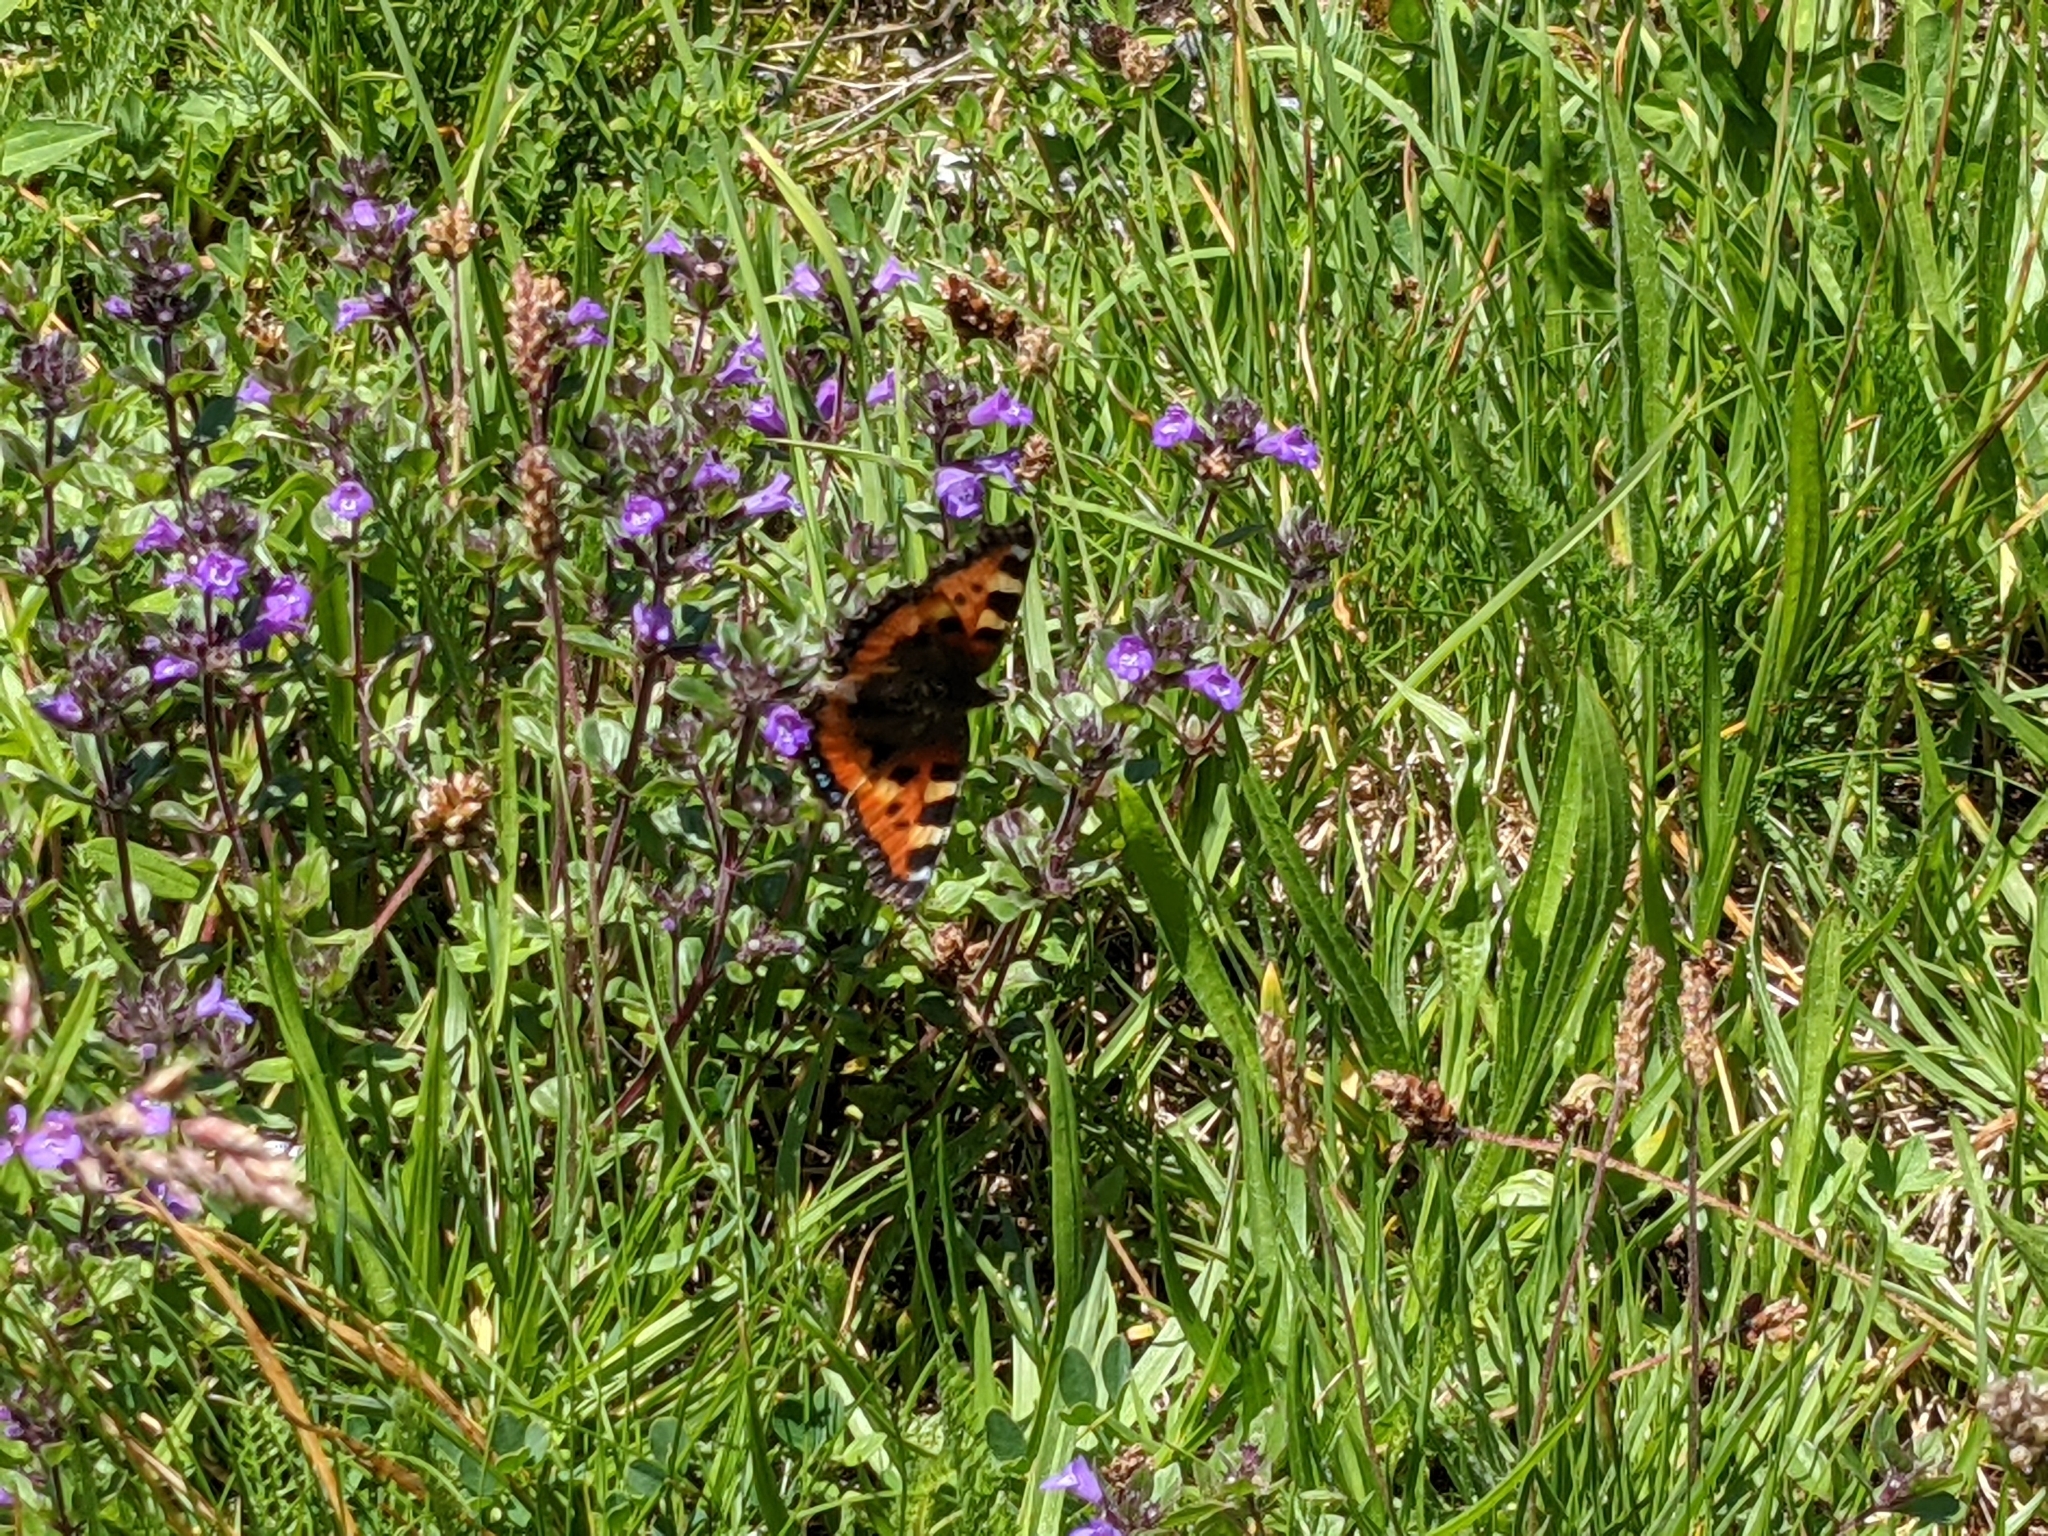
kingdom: Animalia
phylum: Arthropoda
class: Insecta
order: Lepidoptera
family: Nymphalidae
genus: Aglais
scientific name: Aglais urticae
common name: Small tortoiseshell
